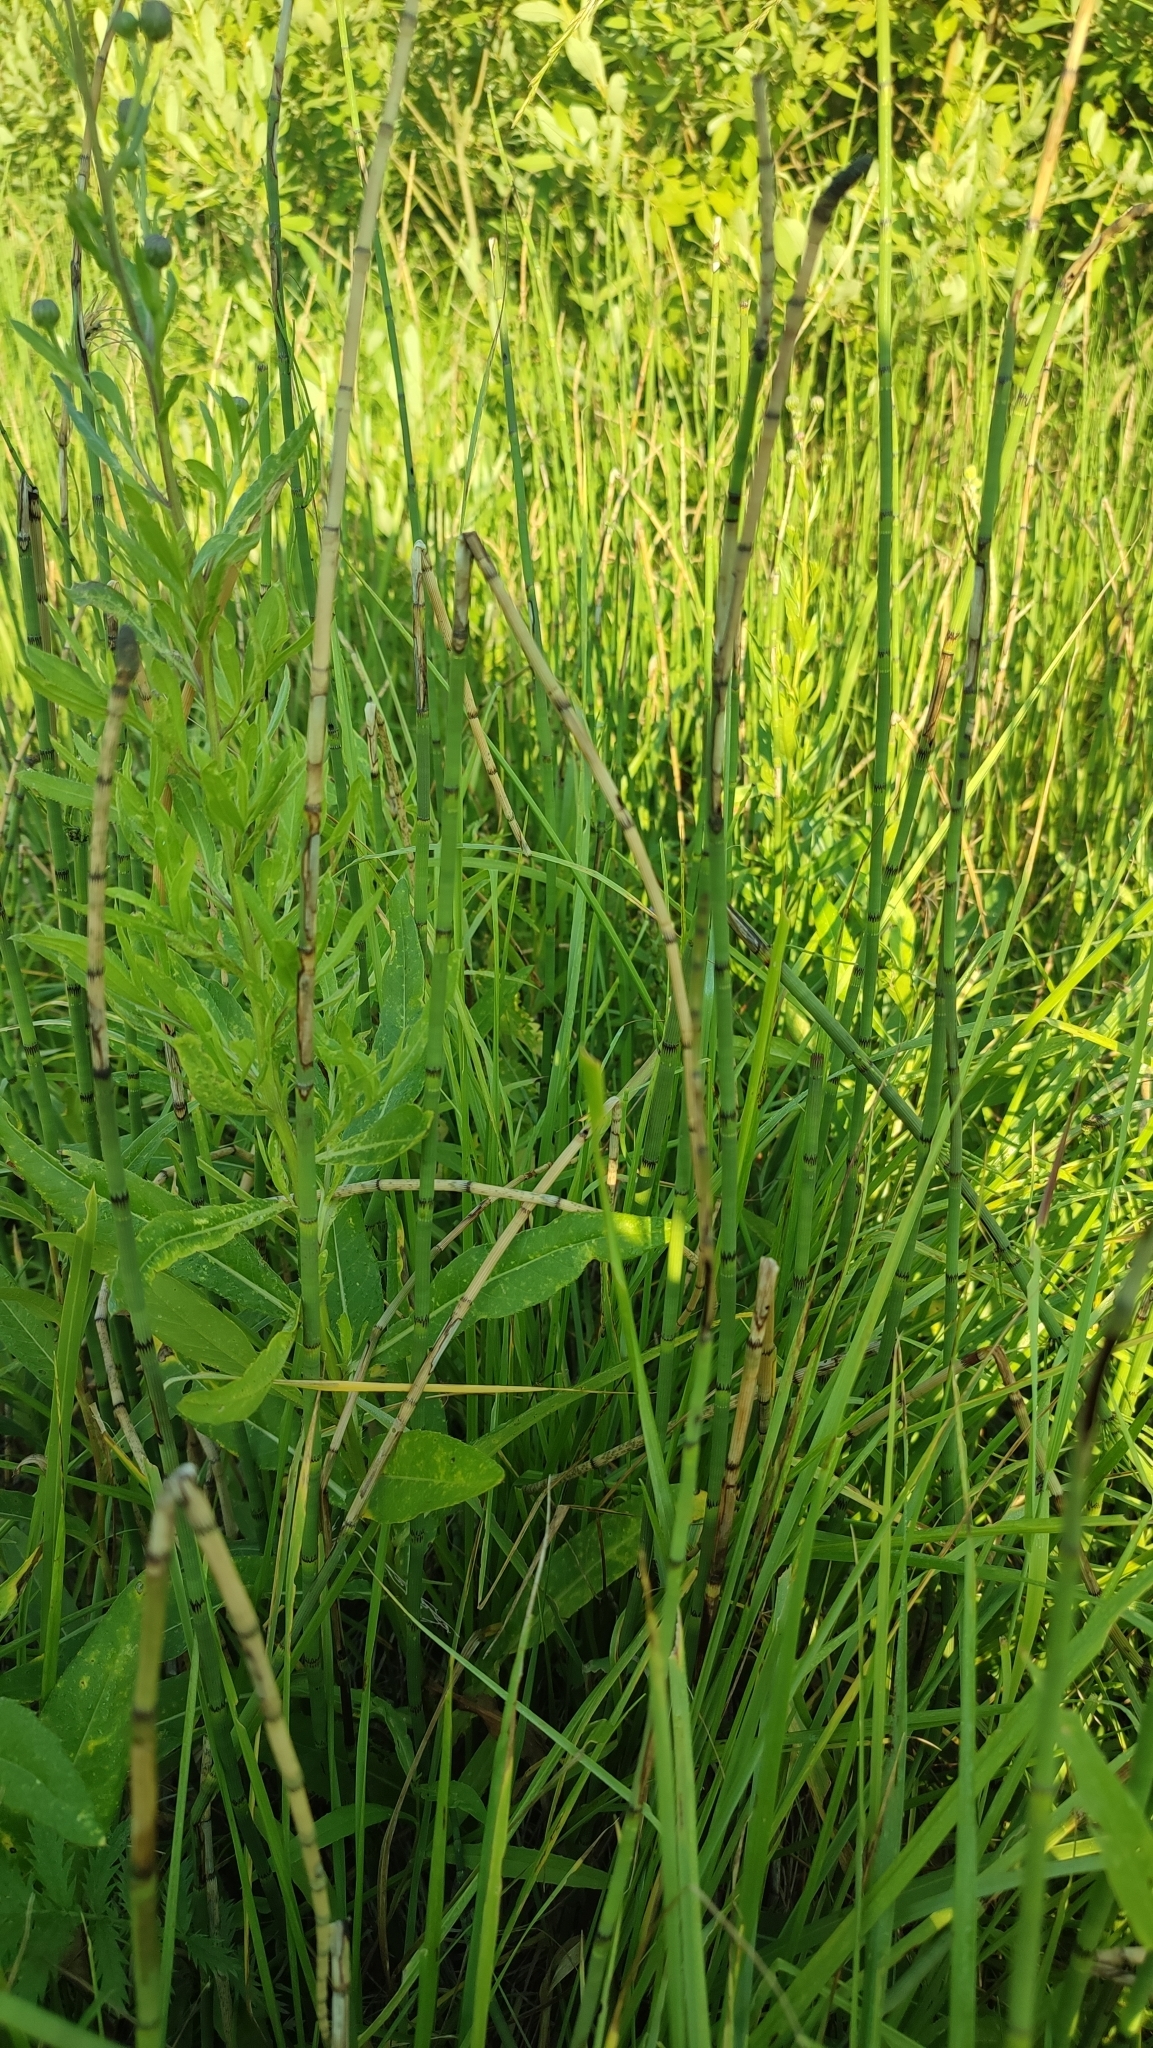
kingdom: Plantae
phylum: Tracheophyta
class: Polypodiopsida
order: Equisetales
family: Equisetaceae
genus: Equisetum
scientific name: Equisetum fluviatile
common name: Water horsetail
